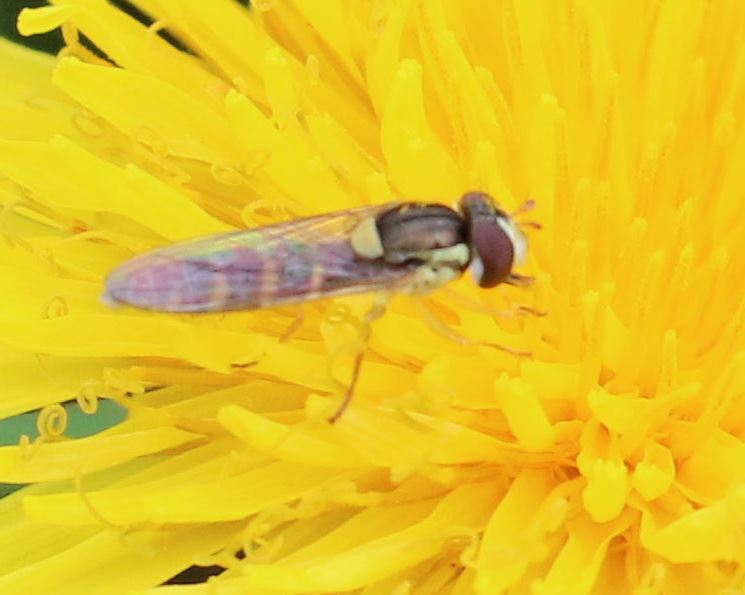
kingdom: Animalia
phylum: Arthropoda
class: Insecta
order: Diptera
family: Syrphidae
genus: Sphaerophoria
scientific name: Sphaerophoria
